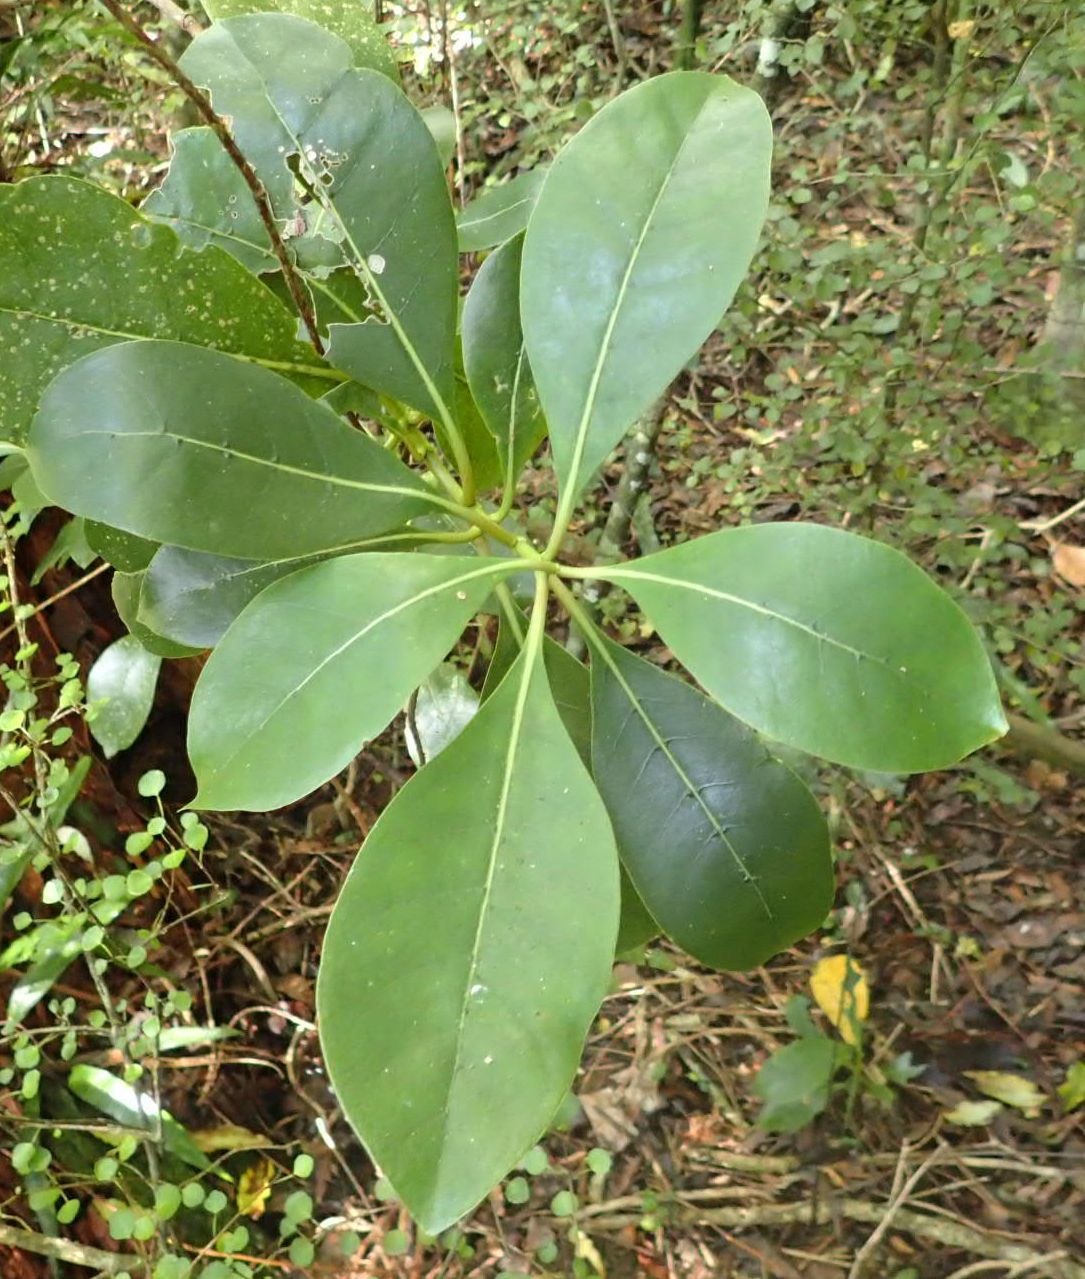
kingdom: Plantae
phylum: Tracheophyta
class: Magnoliopsida
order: Gentianales
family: Rubiaceae
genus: Coprosma
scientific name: Coprosma lucida
